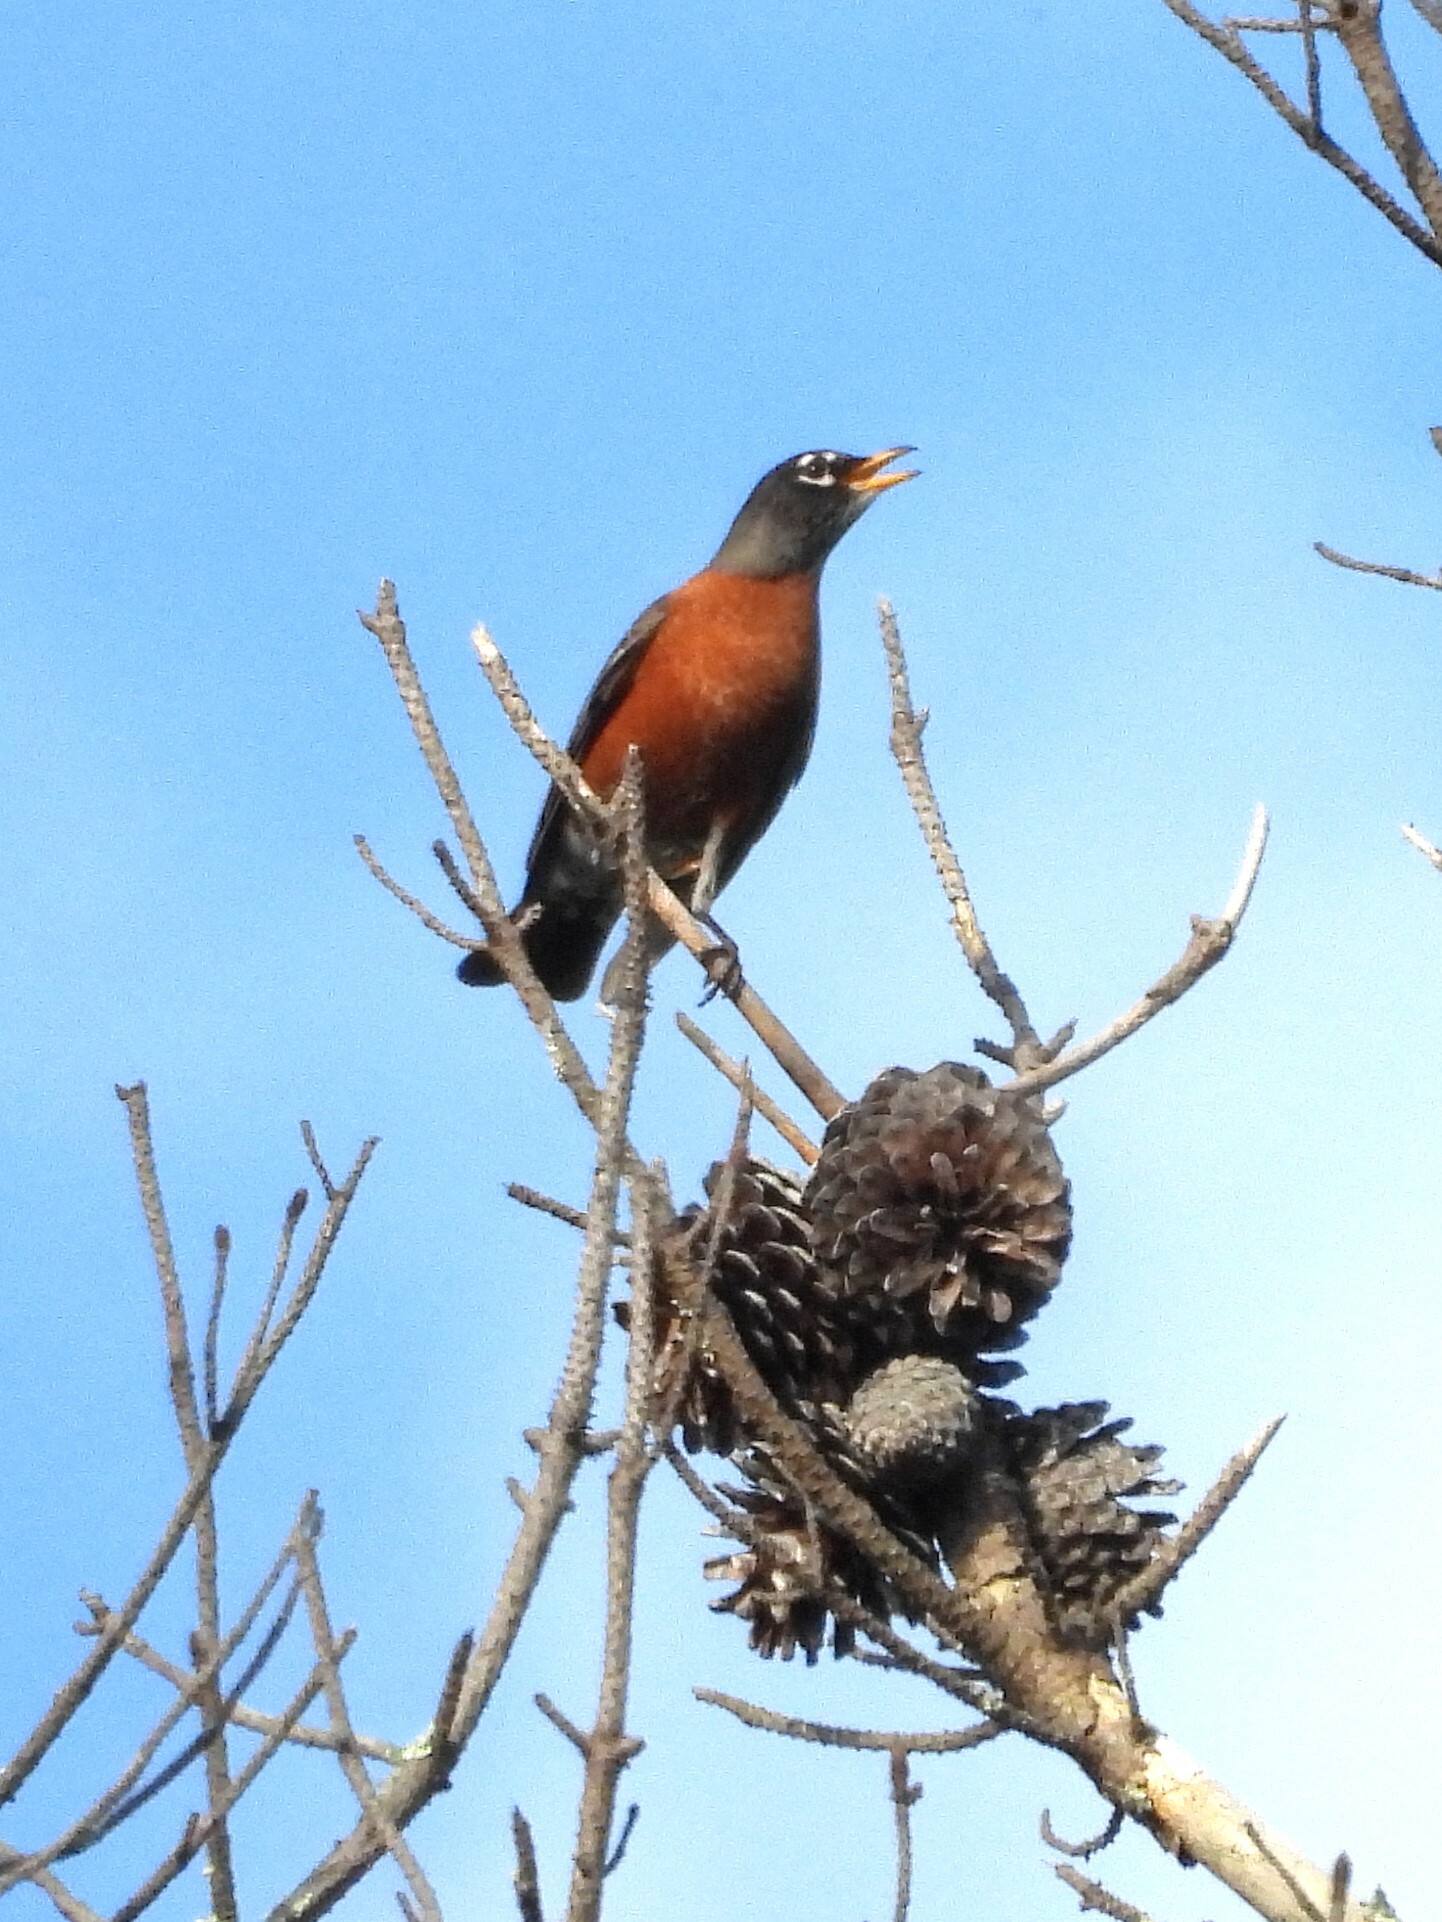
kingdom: Animalia
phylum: Chordata
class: Aves
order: Passeriformes
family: Turdidae
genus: Turdus
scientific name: Turdus migratorius
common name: American robin
